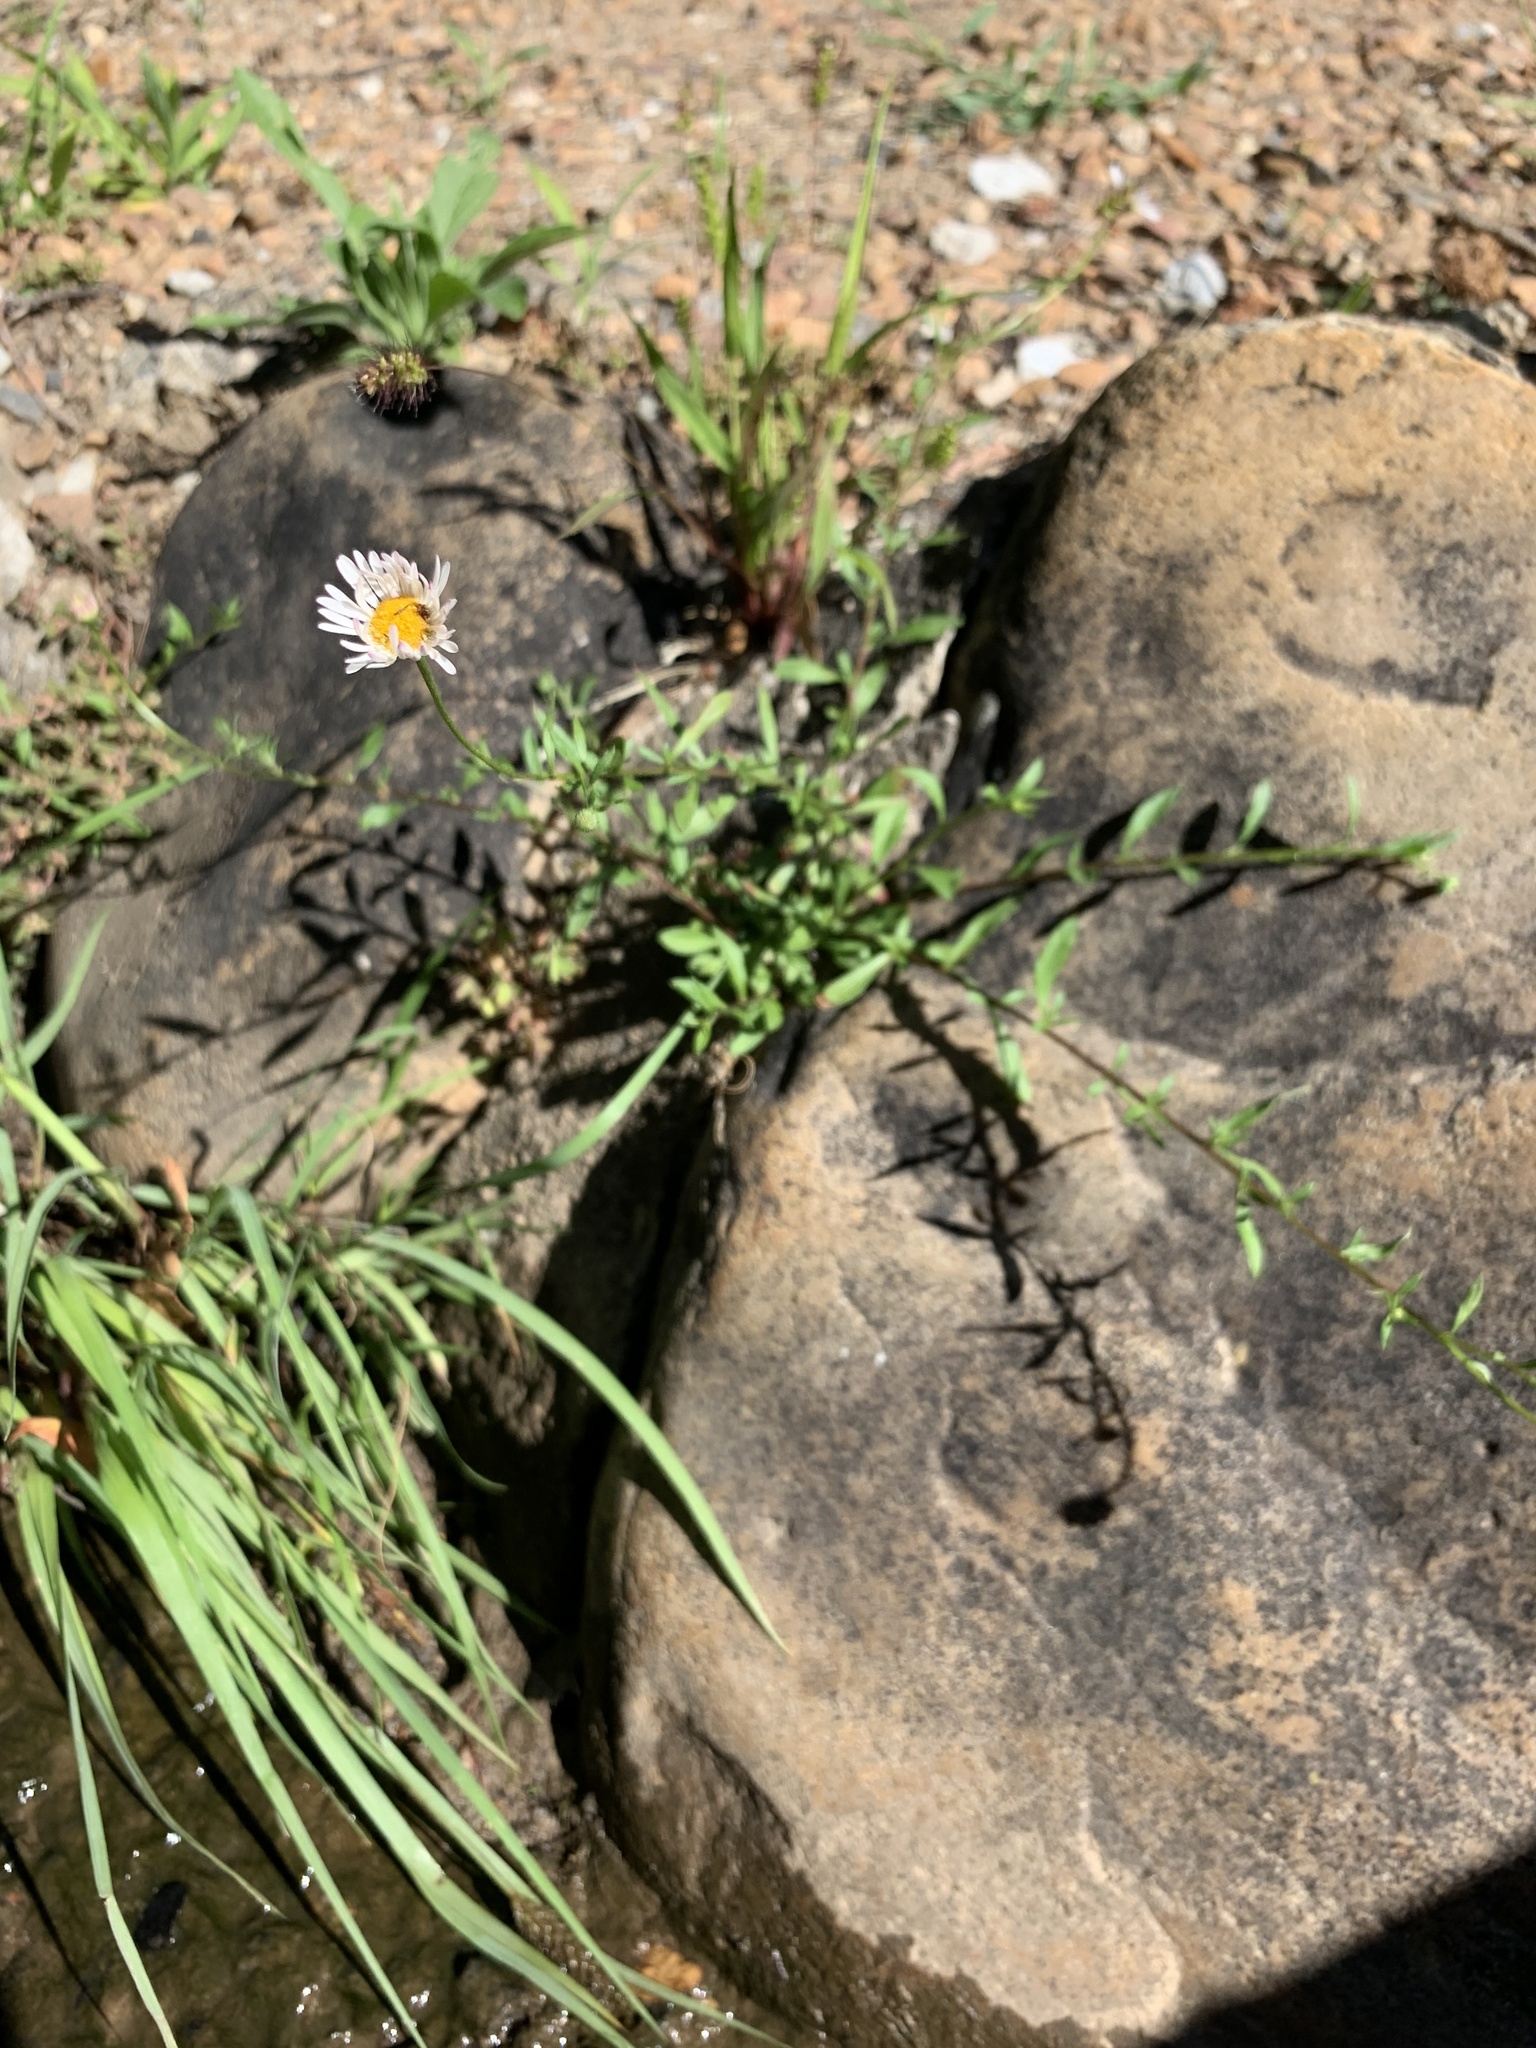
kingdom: Plantae
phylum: Tracheophyta
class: Magnoliopsida
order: Asterales
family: Asteraceae
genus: Erigeron
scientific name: Erigeron karvinskianus
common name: Mexican fleabane
